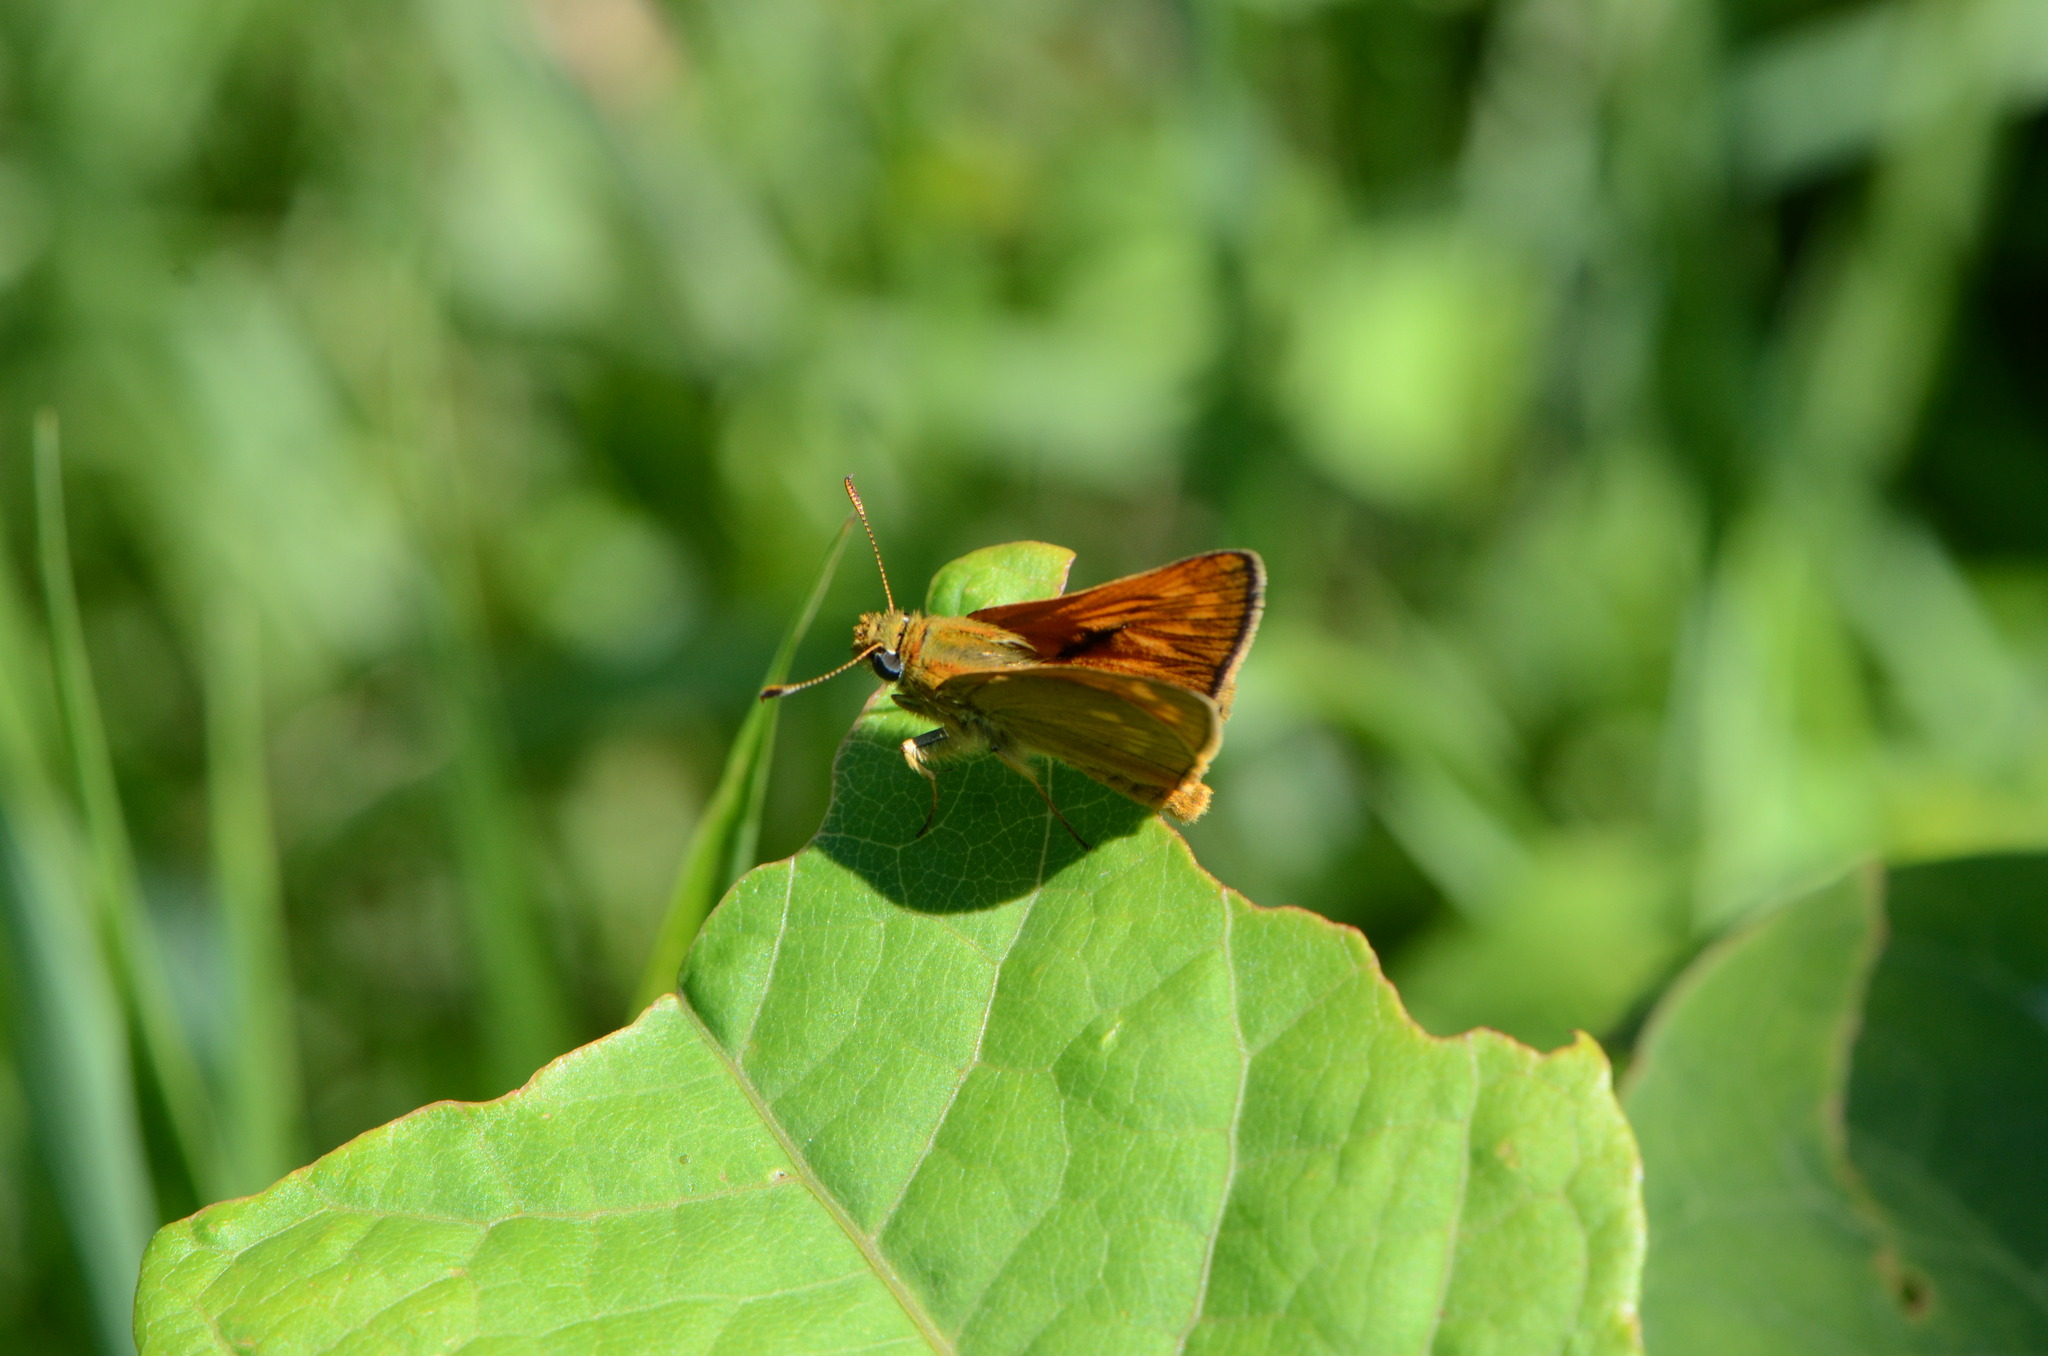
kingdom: Animalia
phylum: Arthropoda
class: Insecta
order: Lepidoptera
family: Hesperiidae
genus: Ochlodes
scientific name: Ochlodes venata
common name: Large skipper
